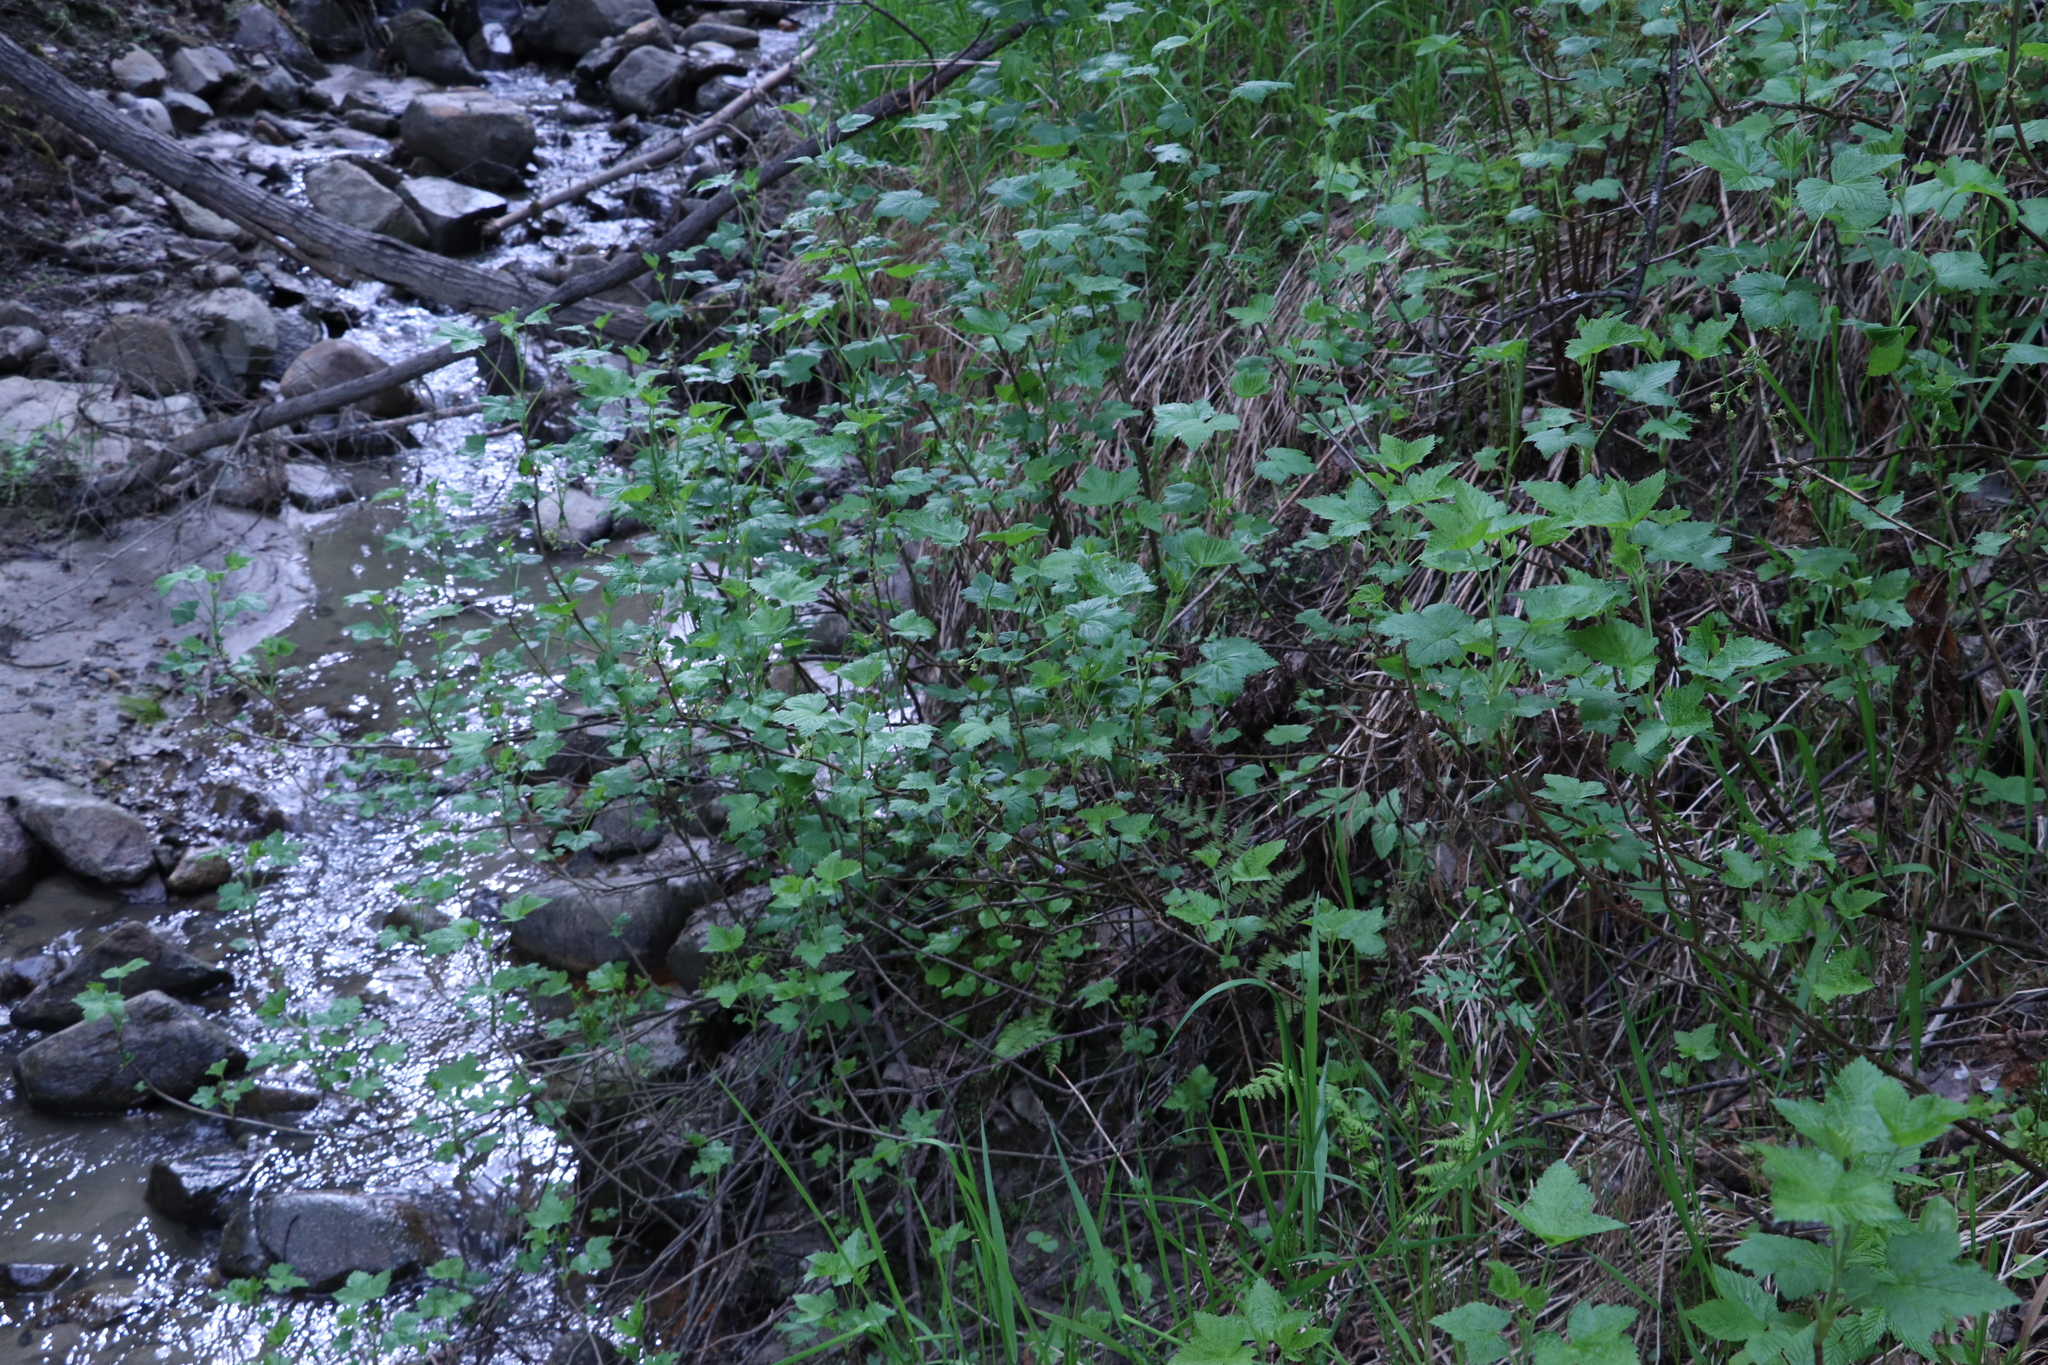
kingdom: Plantae
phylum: Tracheophyta
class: Magnoliopsida
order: Saxifragales
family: Grossulariaceae
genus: Ribes
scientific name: Ribes nigrum
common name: Black currant
